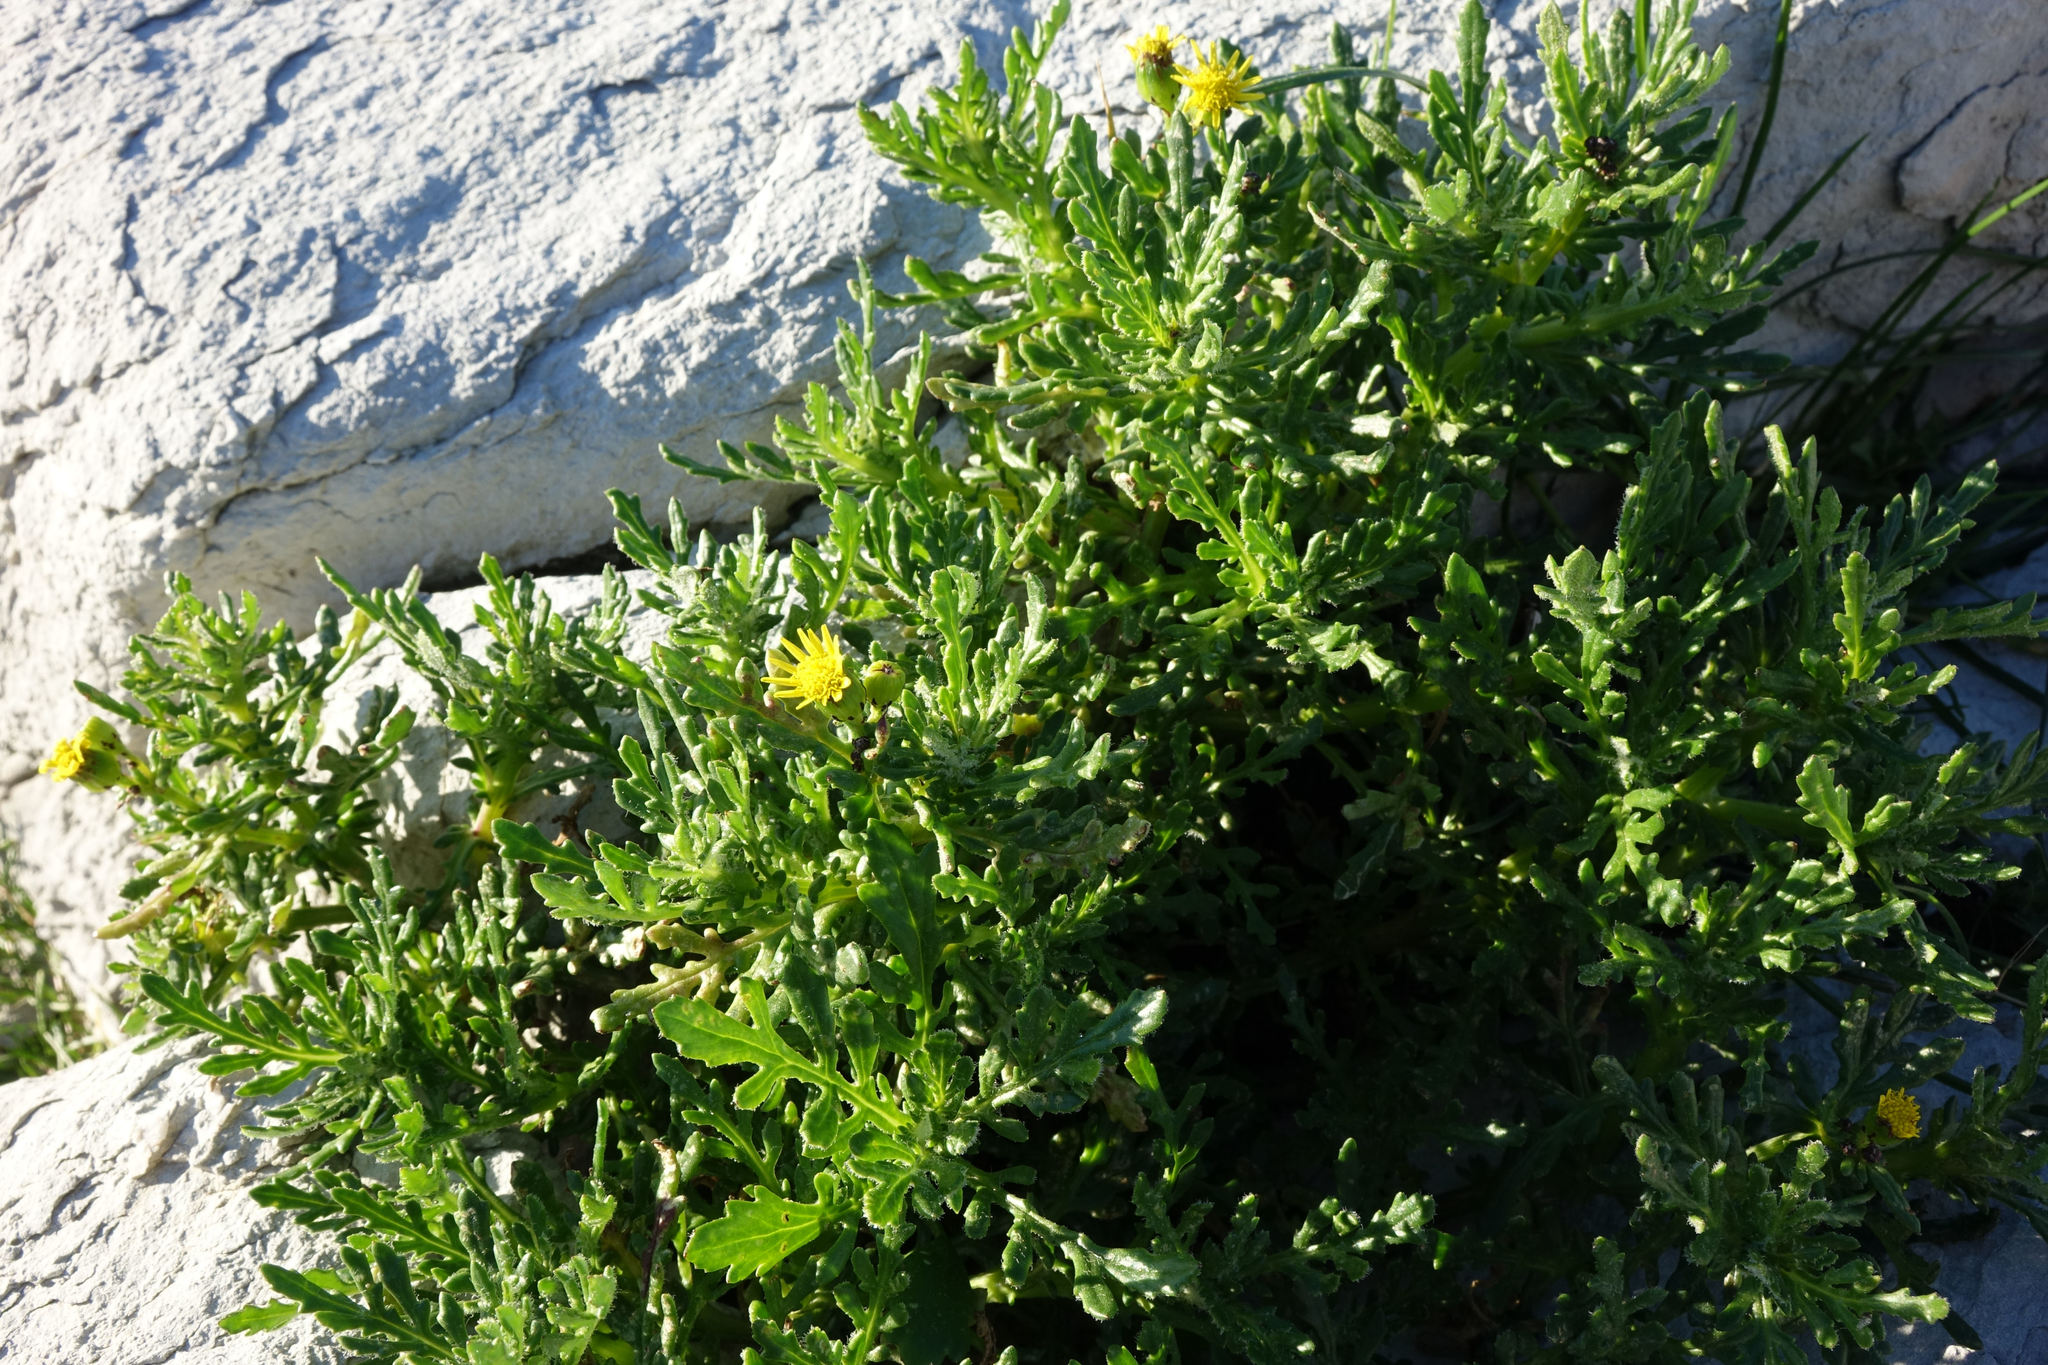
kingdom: Plantae
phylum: Tracheophyta
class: Magnoliopsida
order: Asterales
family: Asteraceae
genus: Senecio
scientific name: Senecio lautus
